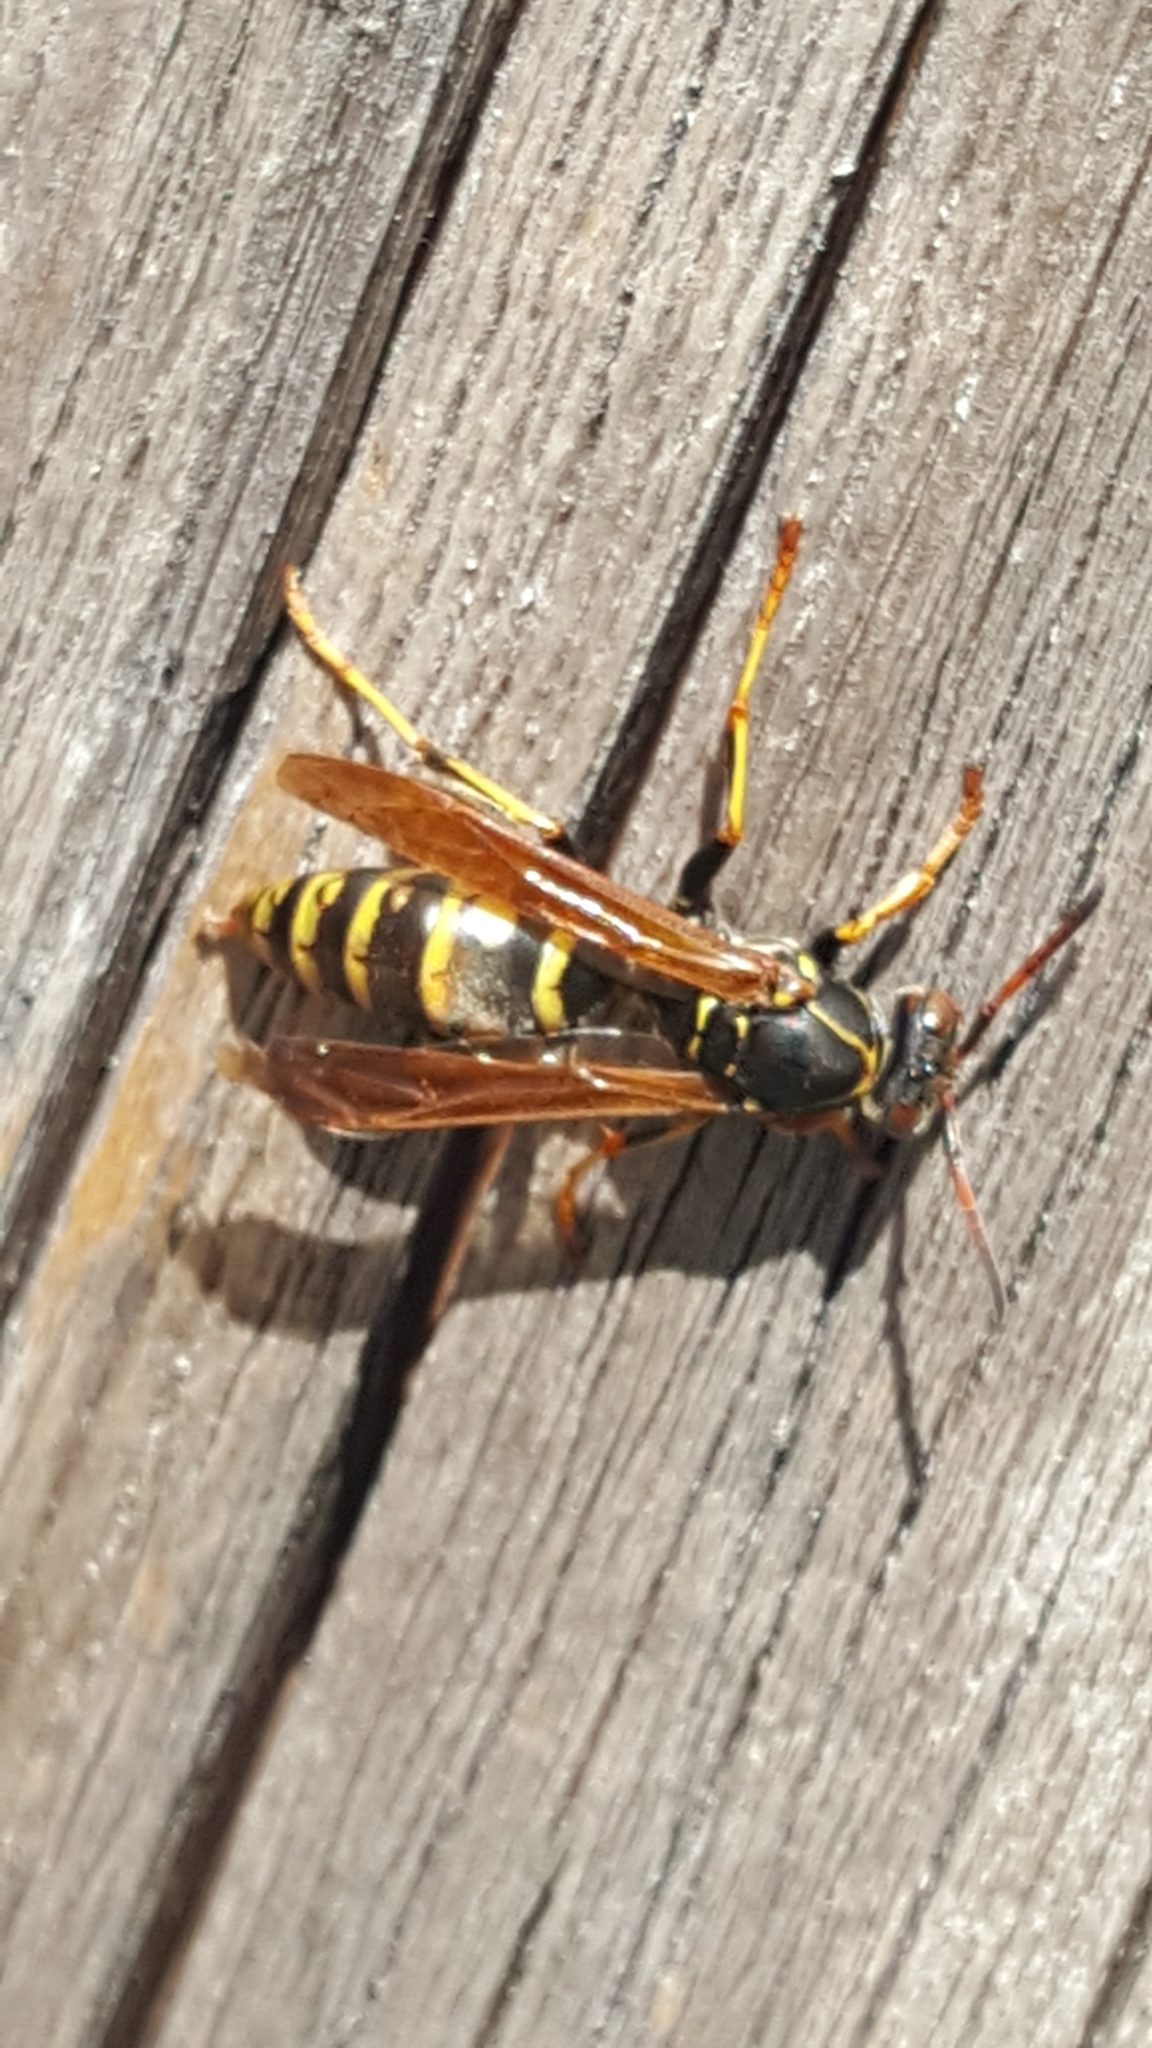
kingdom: Animalia
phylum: Arthropoda
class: Insecta
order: Hymenoptera
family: Eumenidae
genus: Polistes
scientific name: Polistes aurifer
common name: Paper wasp
